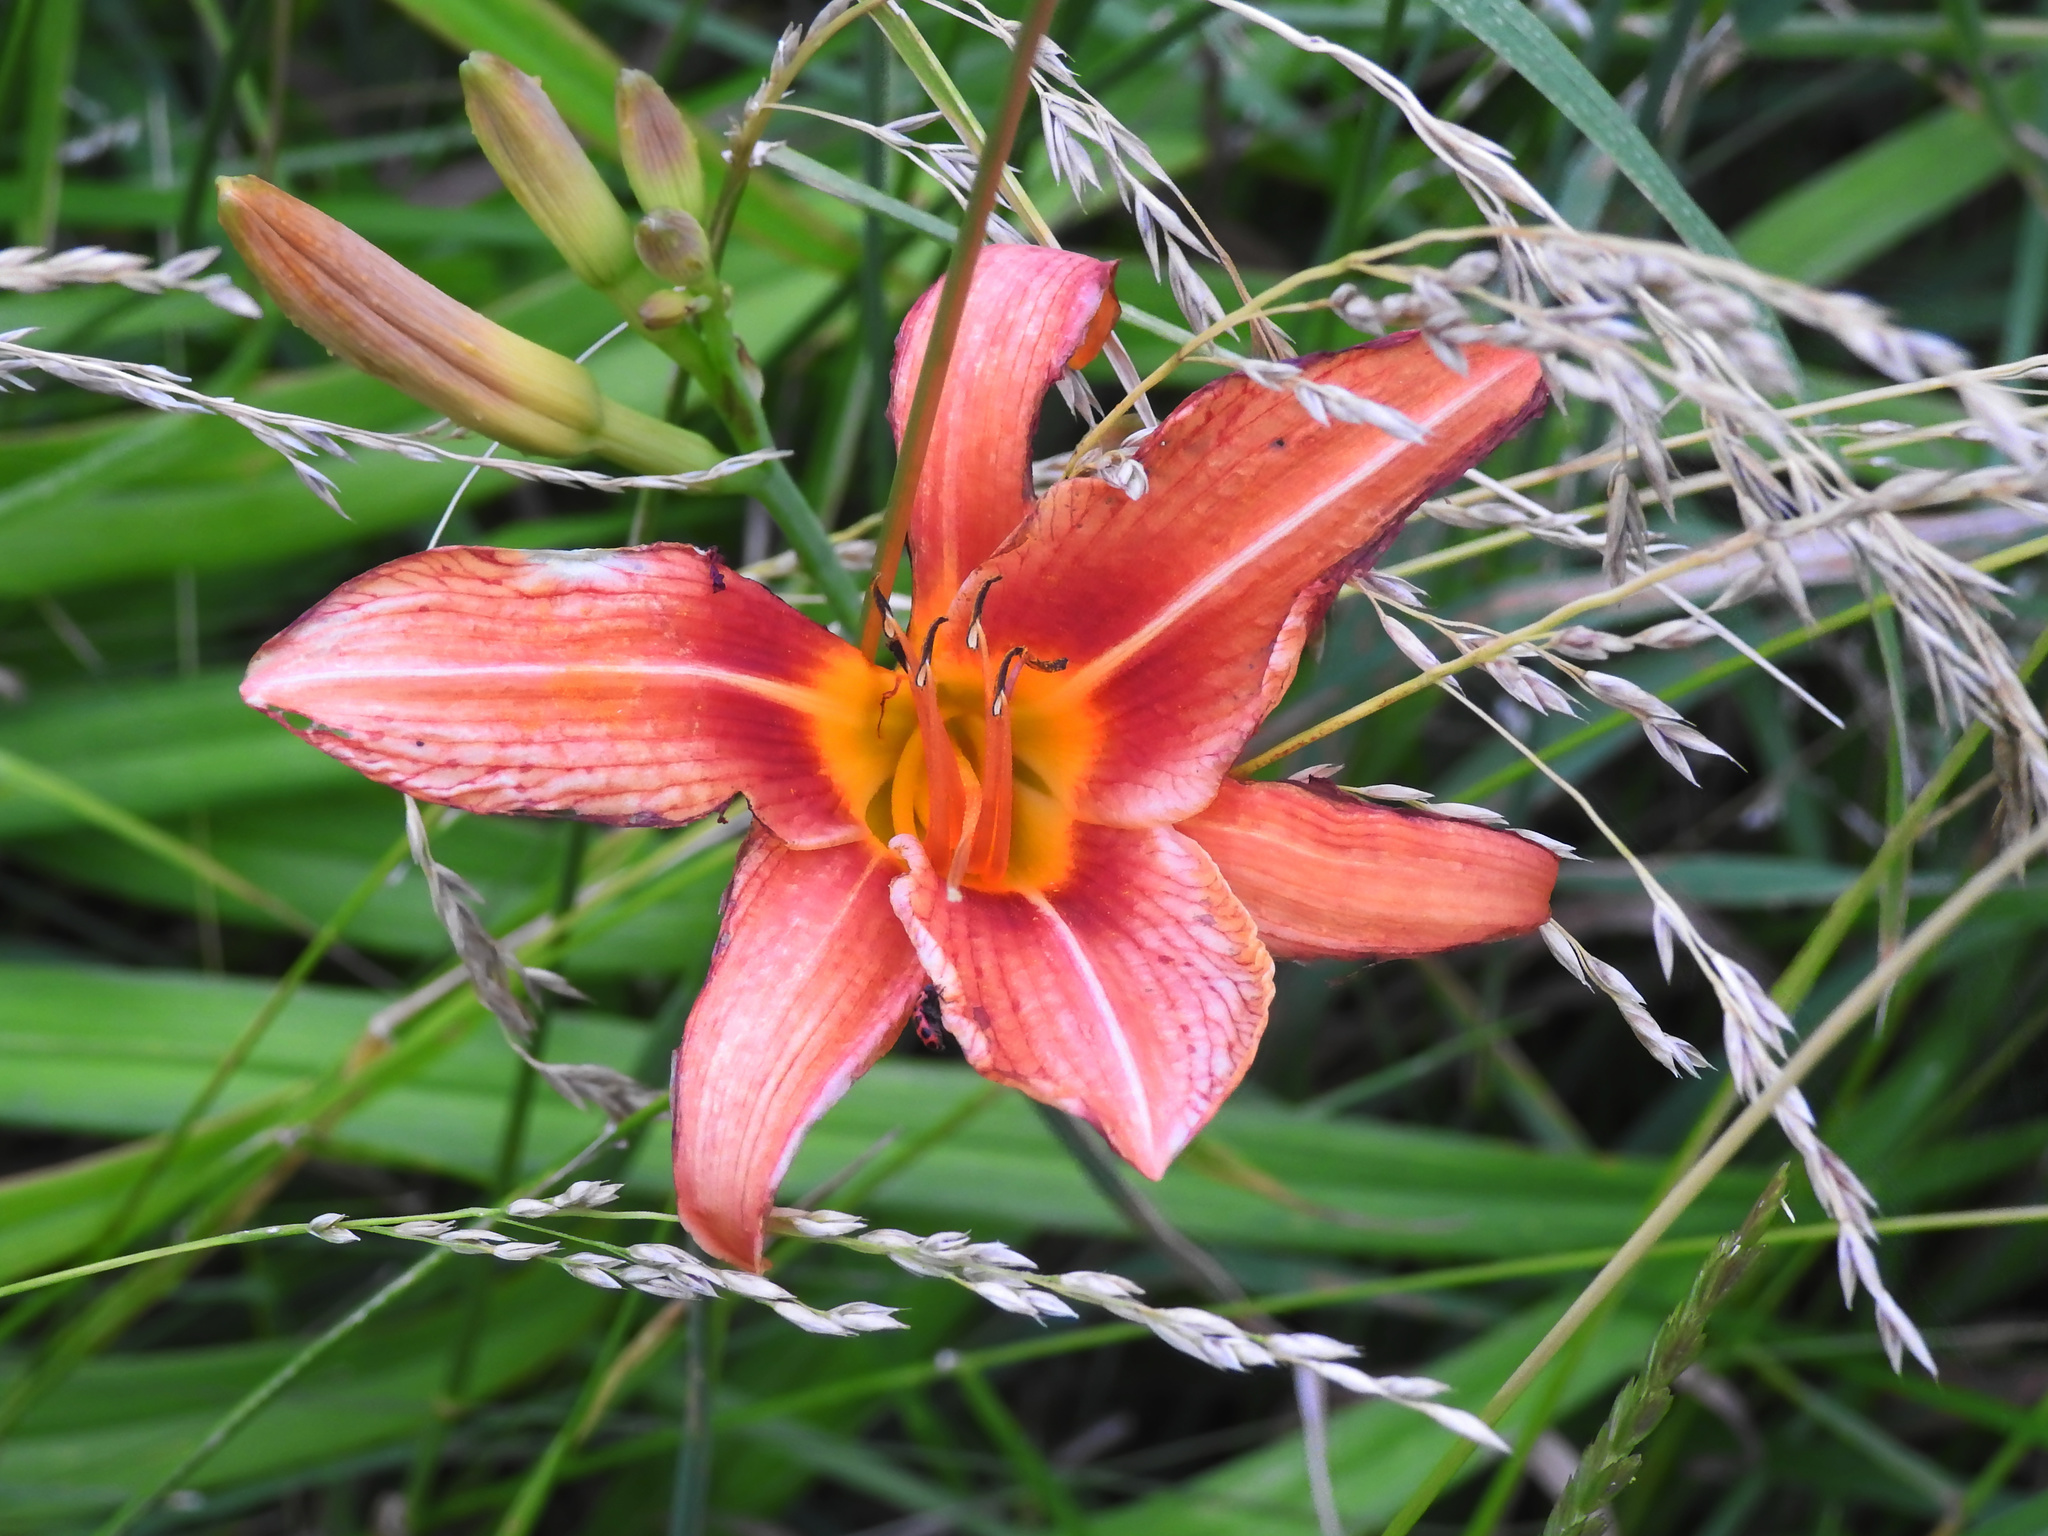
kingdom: Plantae
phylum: Tracheophyta
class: Liliopsida
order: Asparagales
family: Asphodelaceae
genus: Hemerocallis
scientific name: Hemerocallis fulva
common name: Orange day-lily
